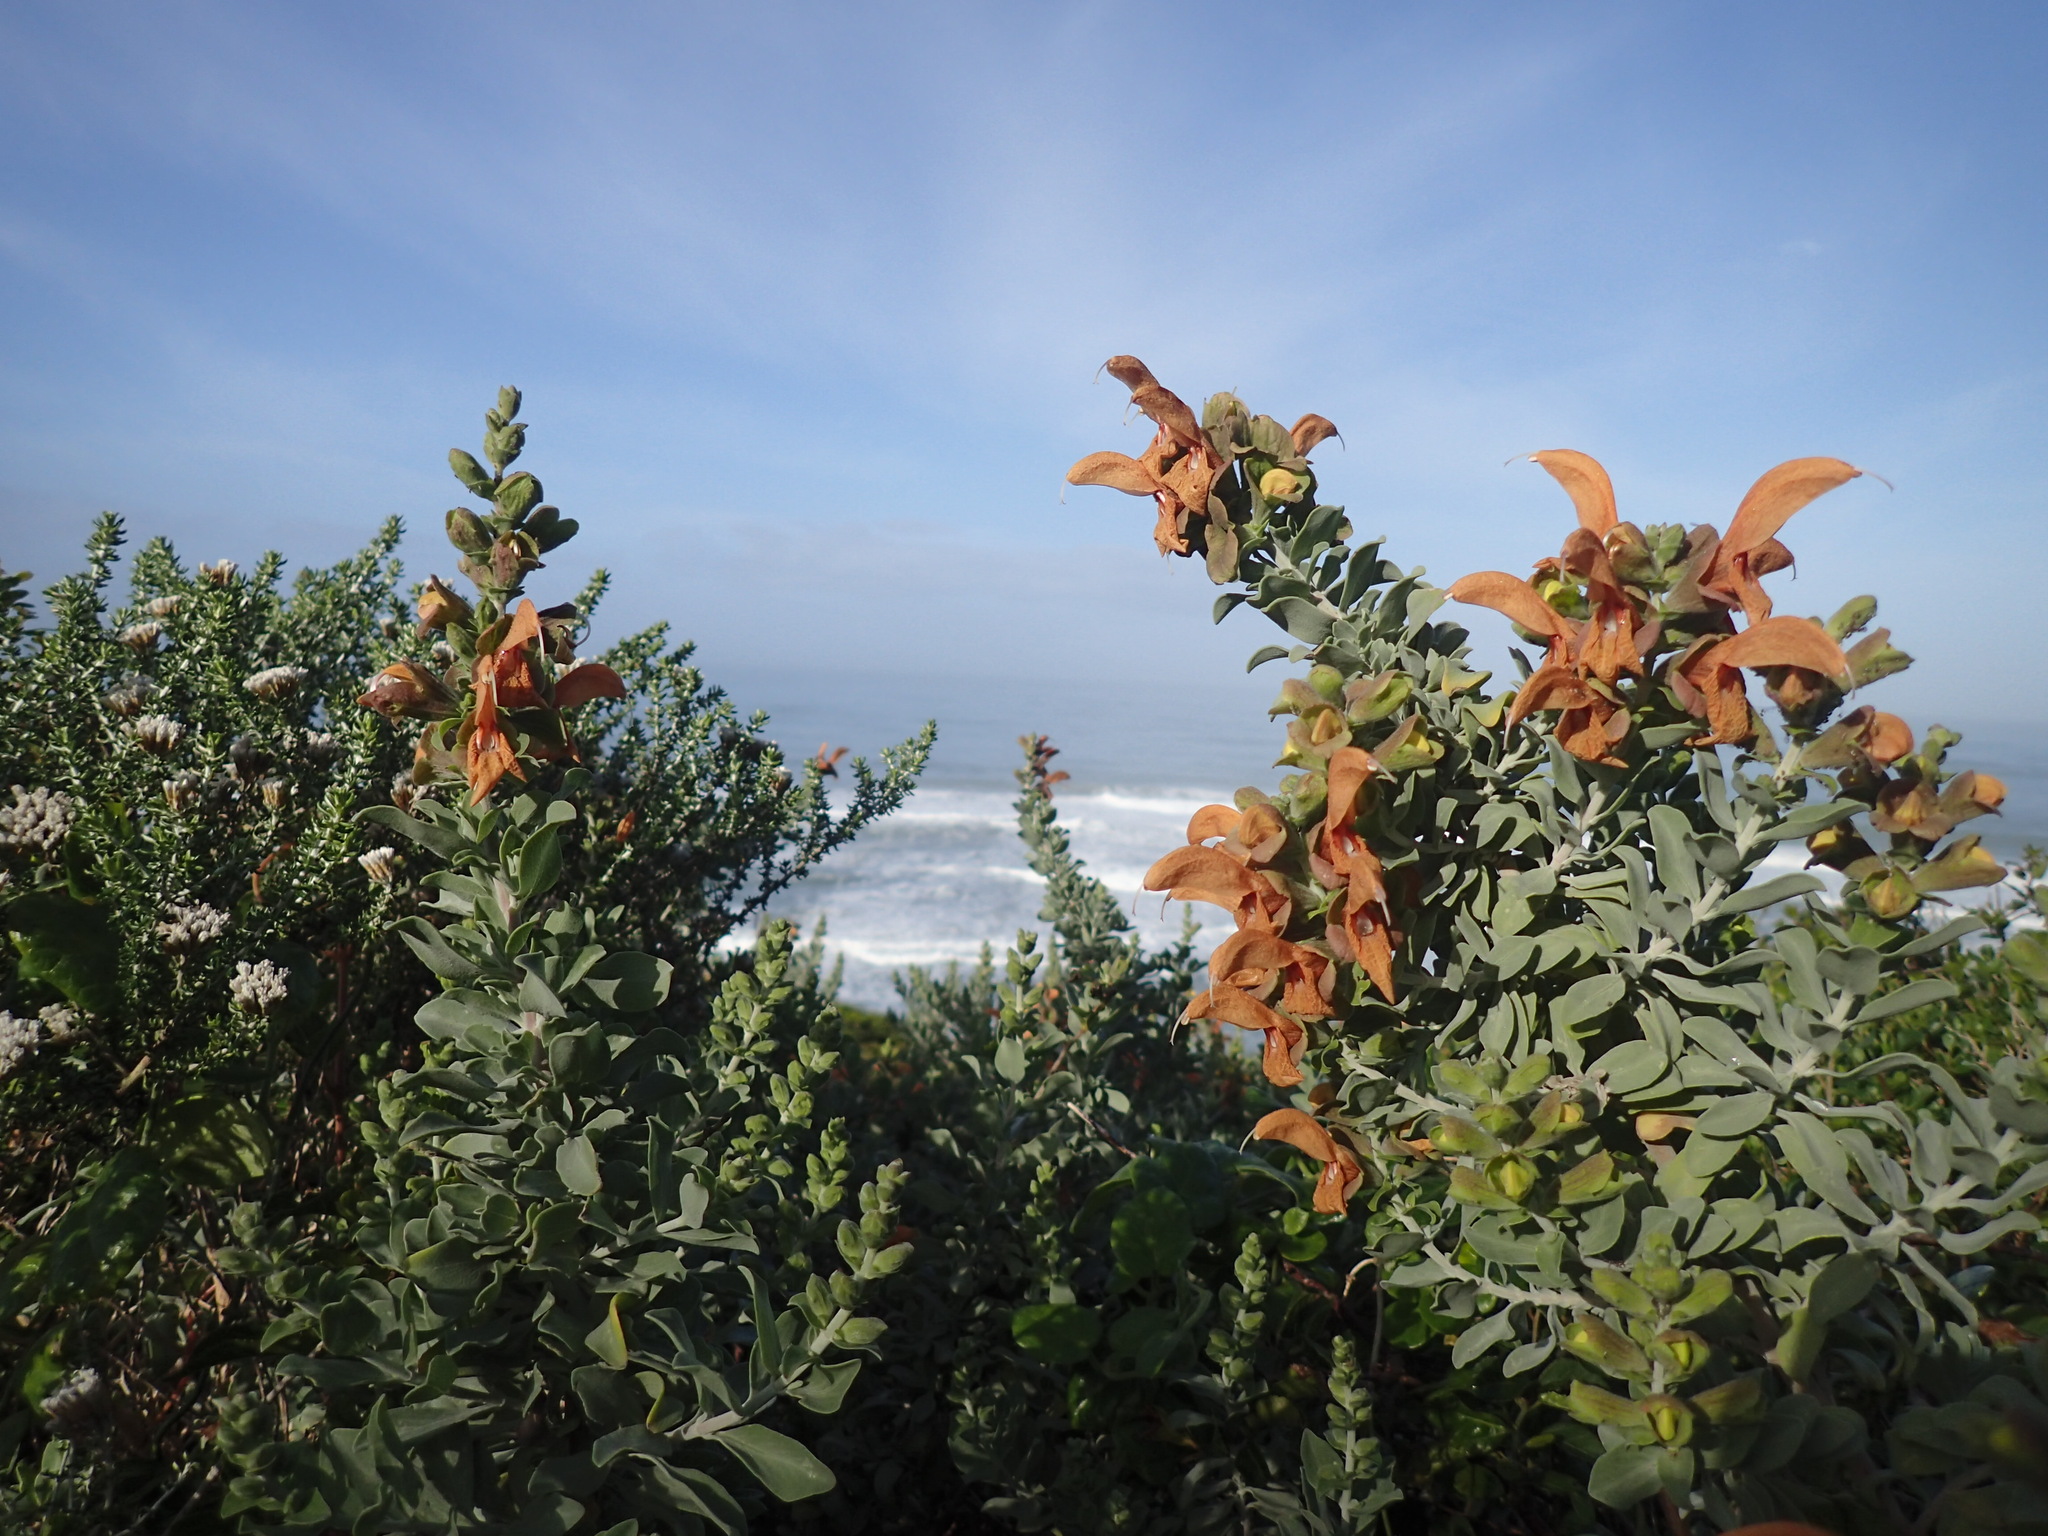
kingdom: Plantae
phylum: Tracheophyta
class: Magnoliopsida
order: Lamiales
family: Lamiaceae
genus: Salvia
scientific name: Salvia aurea
